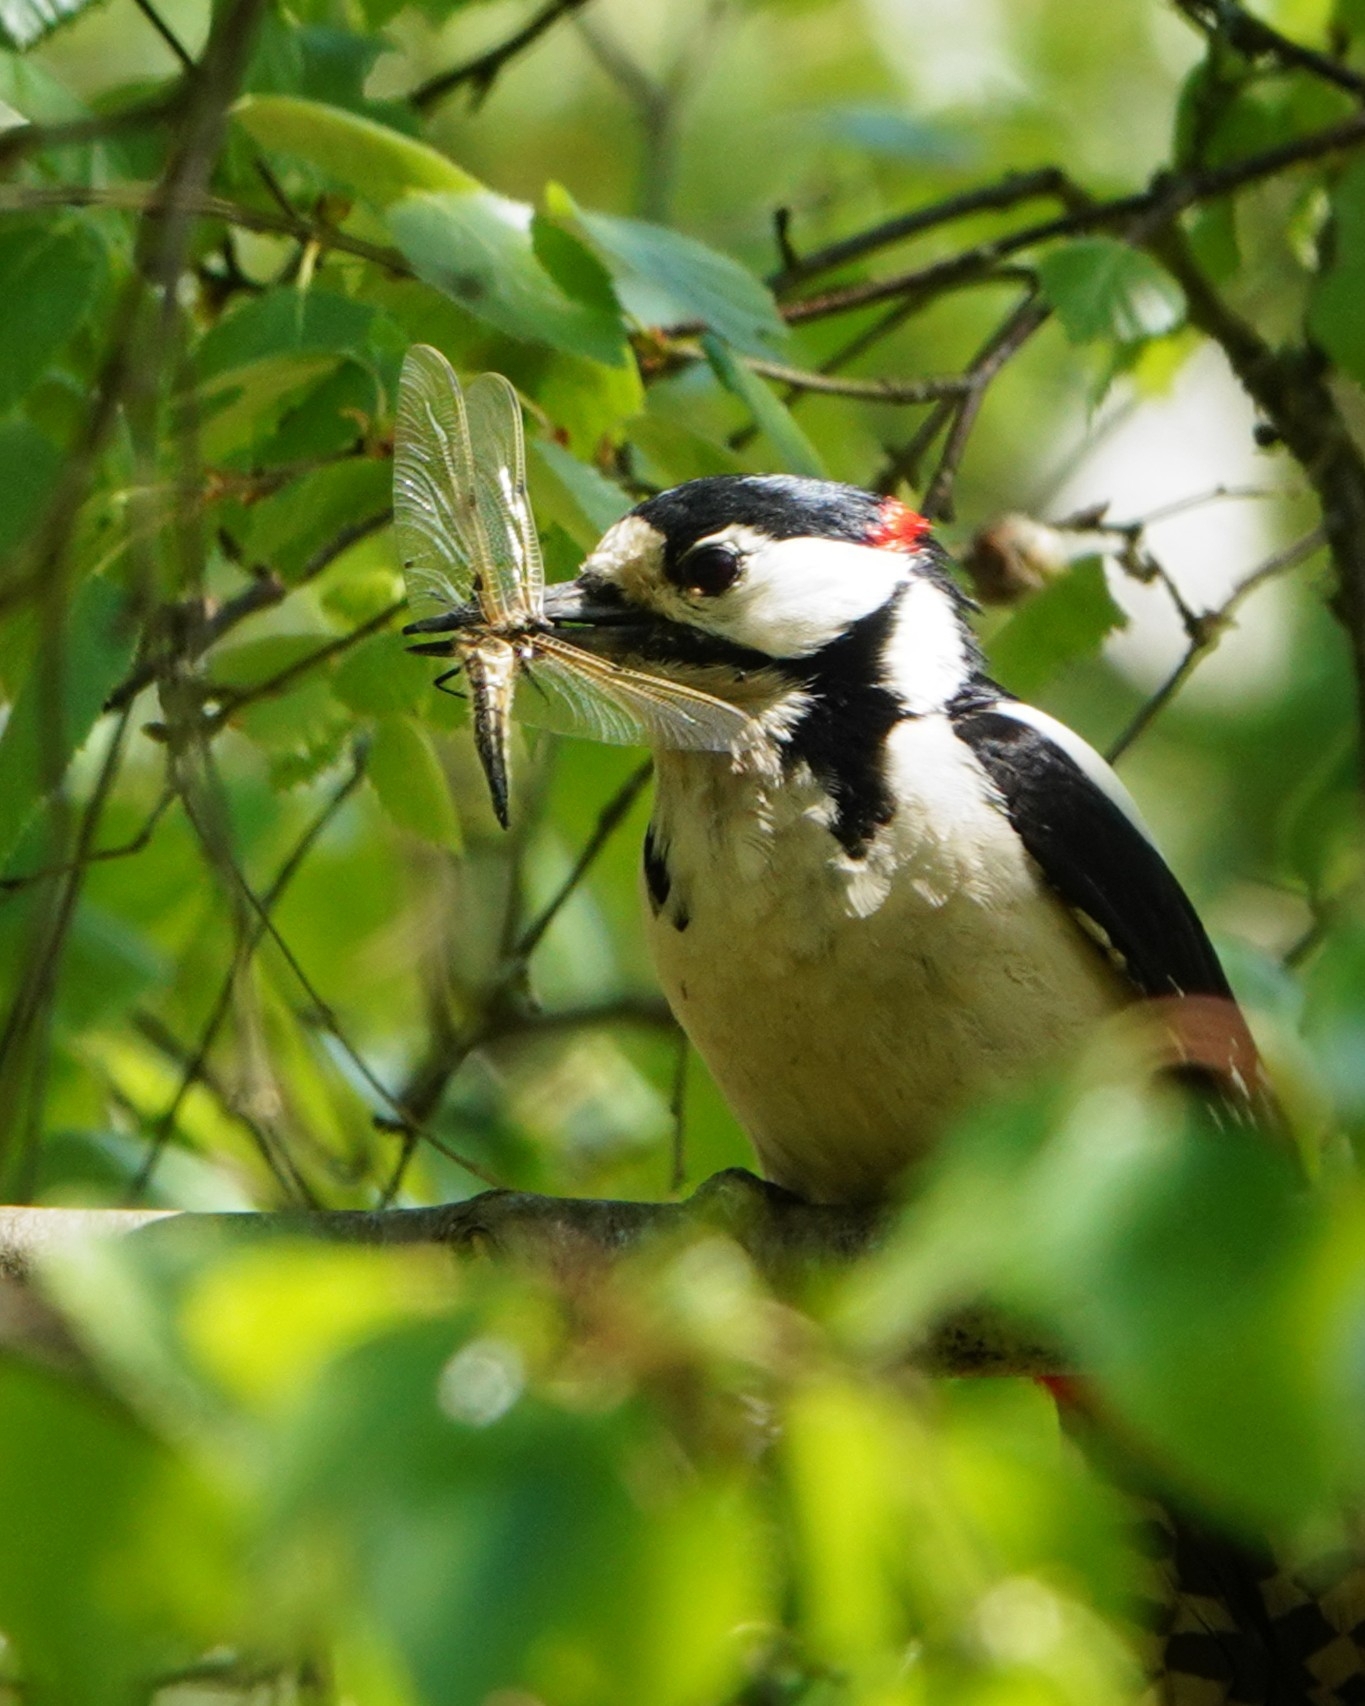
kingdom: Animalia
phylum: Chordata
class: Aves
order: Piciformes
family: Picidae
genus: Dendrocopos
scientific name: Dendrocopos major
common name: Great spotted woodpecker
